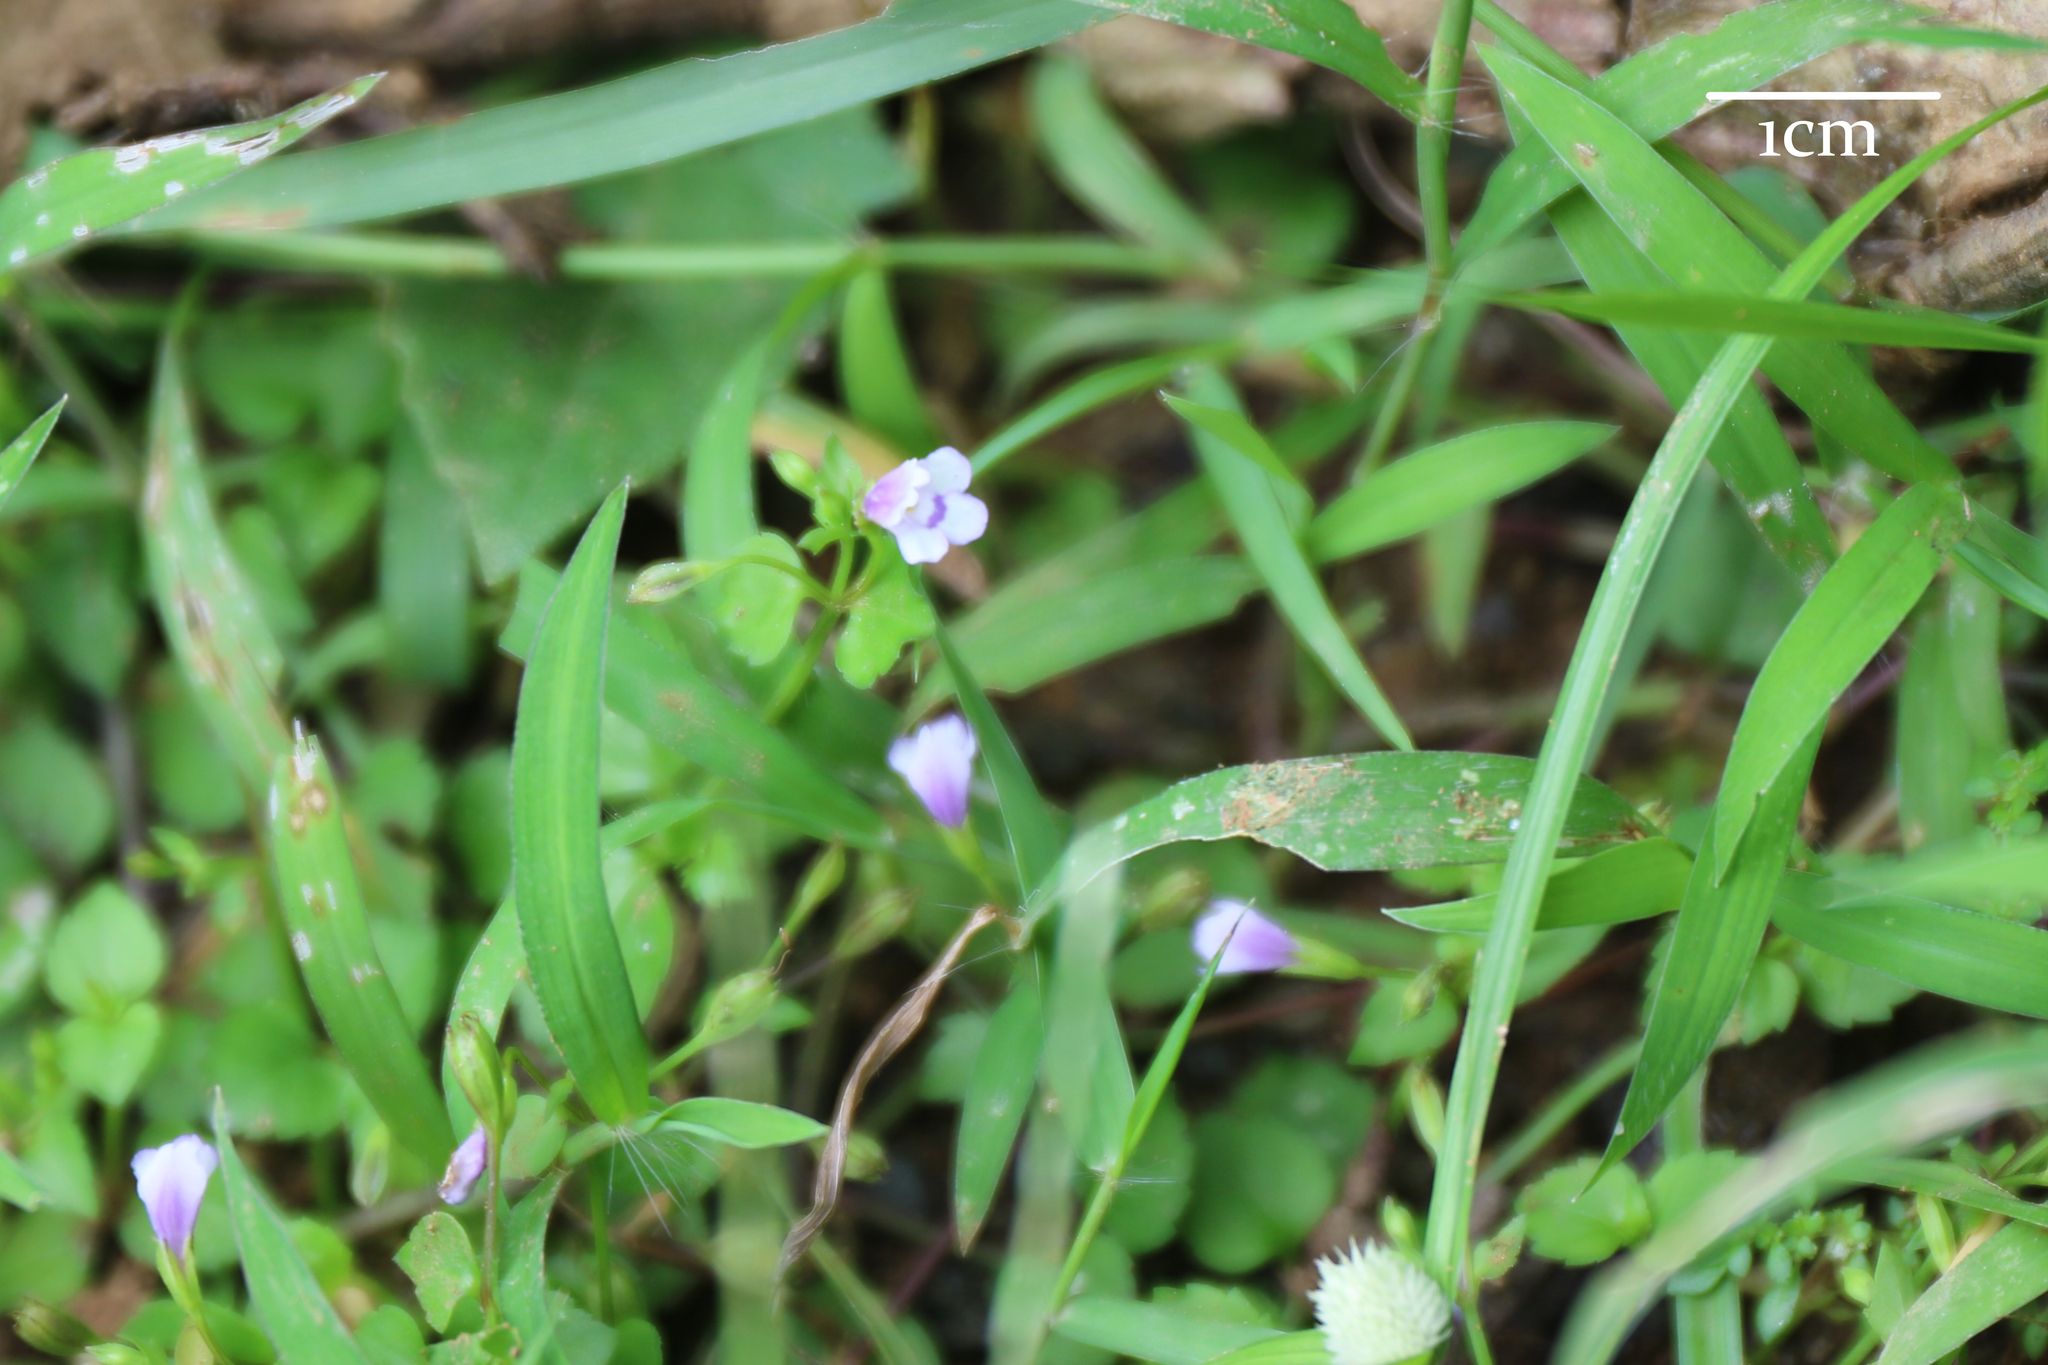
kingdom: Plantae
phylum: Tracheophyta
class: Magnoliopsida
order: Lamiales
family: Linderniaceae
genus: Torenia
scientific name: Torenia crustacea
